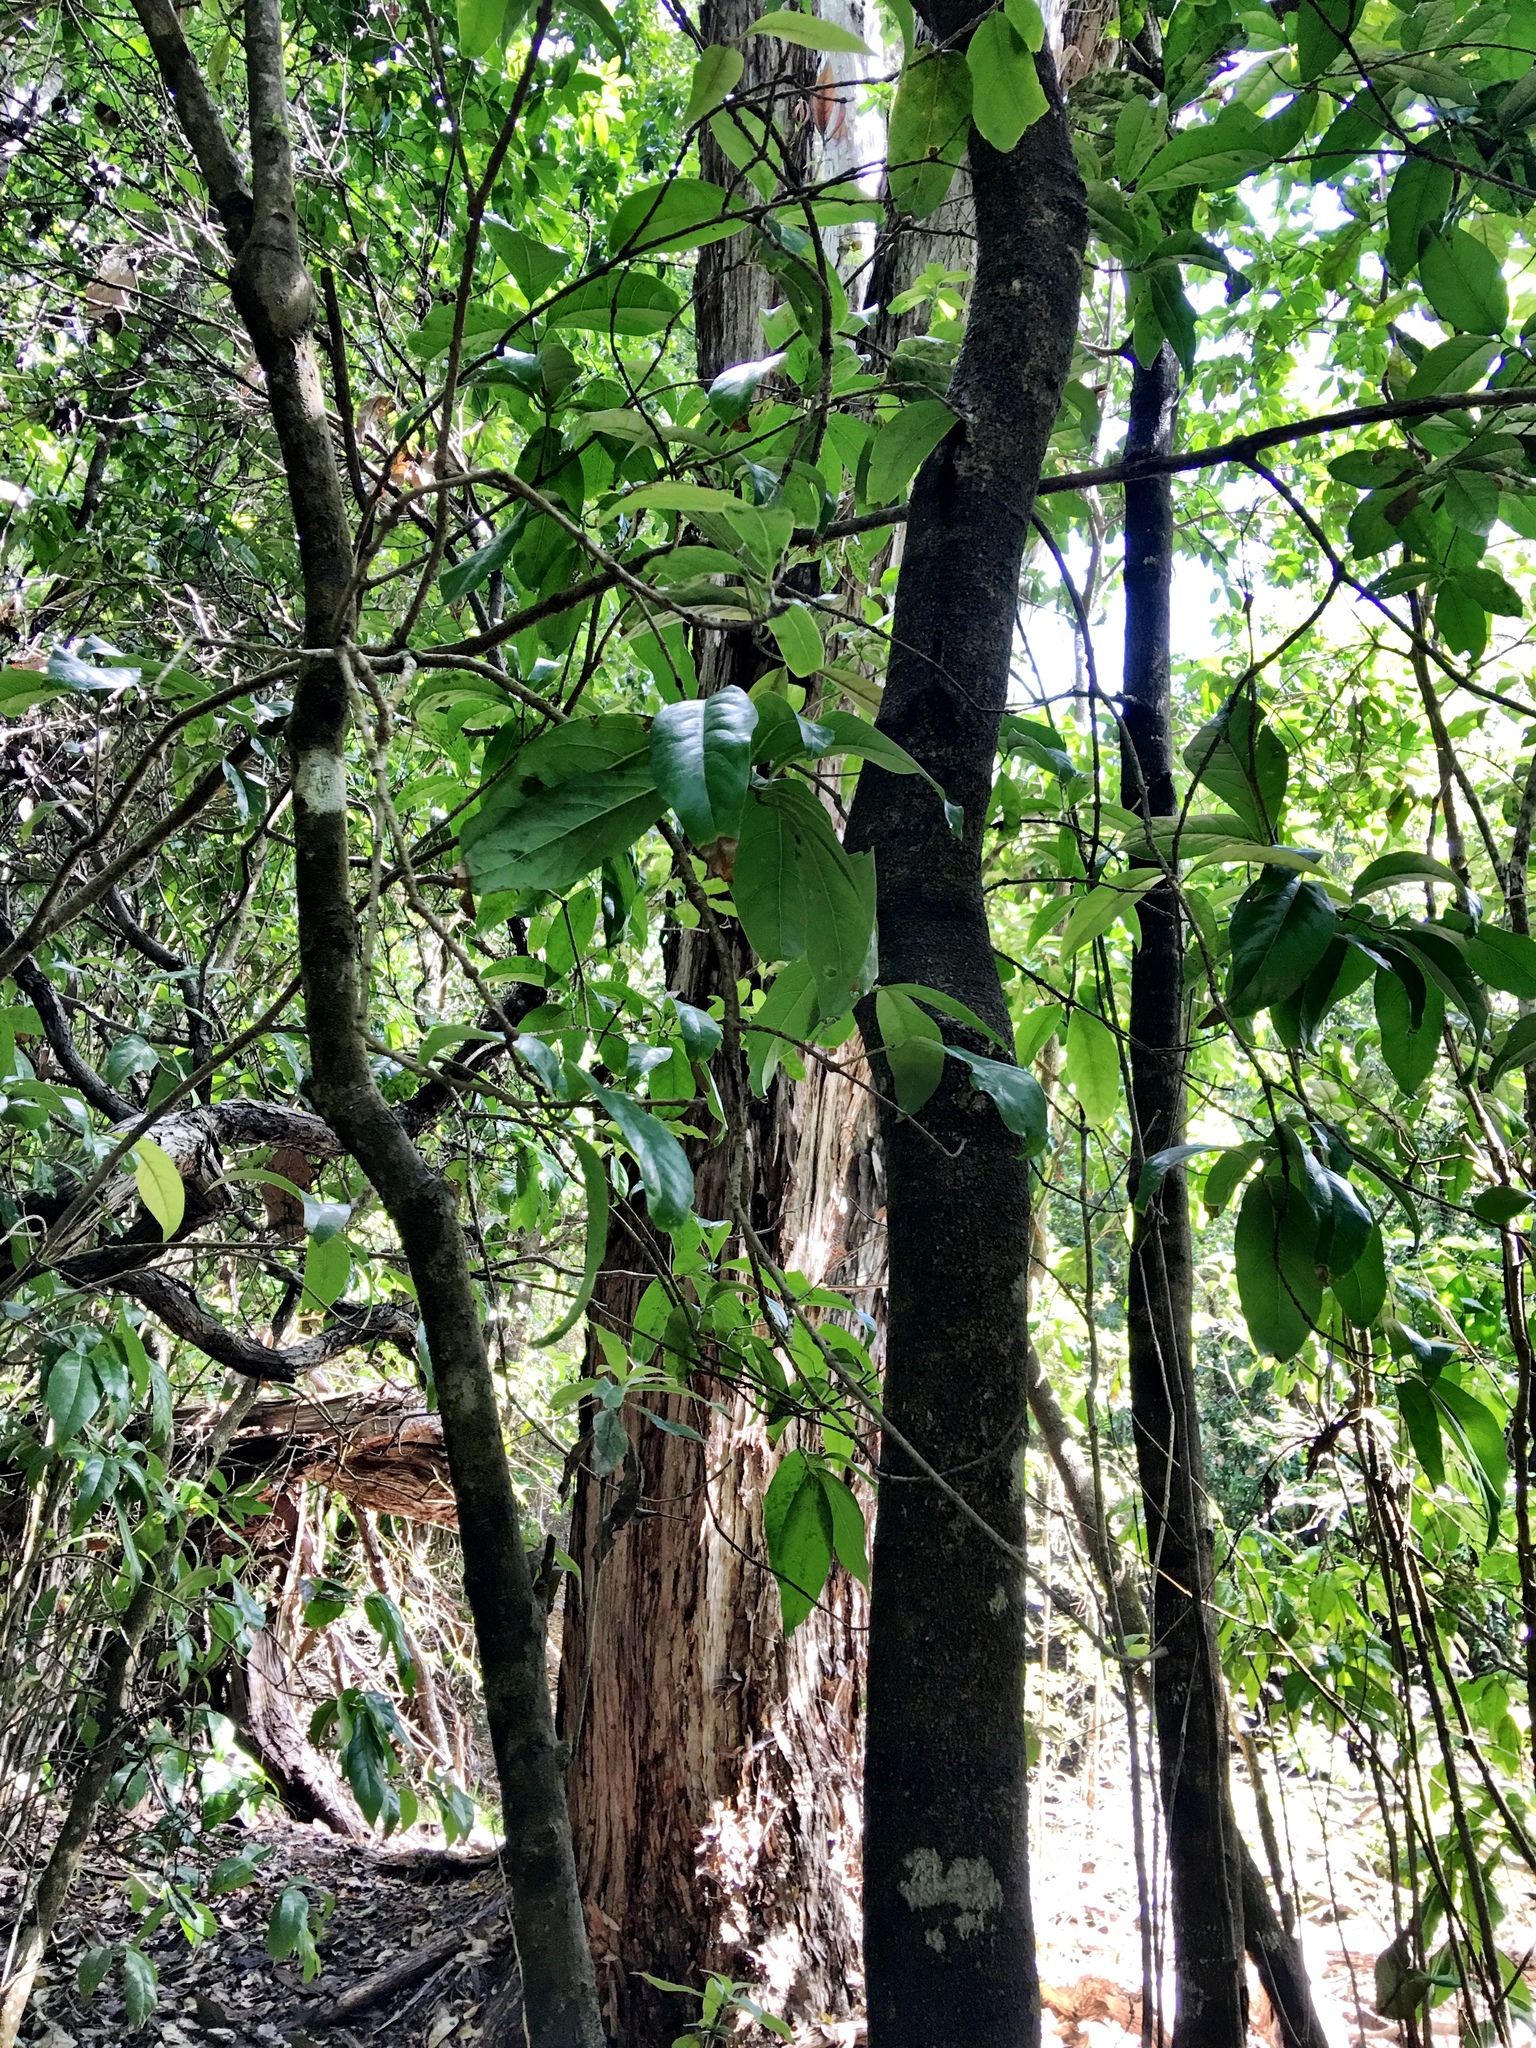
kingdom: Plantae
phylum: Tracheophyta
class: Magnoliopsida
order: Lamiales
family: Oleaceae
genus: Nestegis
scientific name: Nestegis sandwicensis
